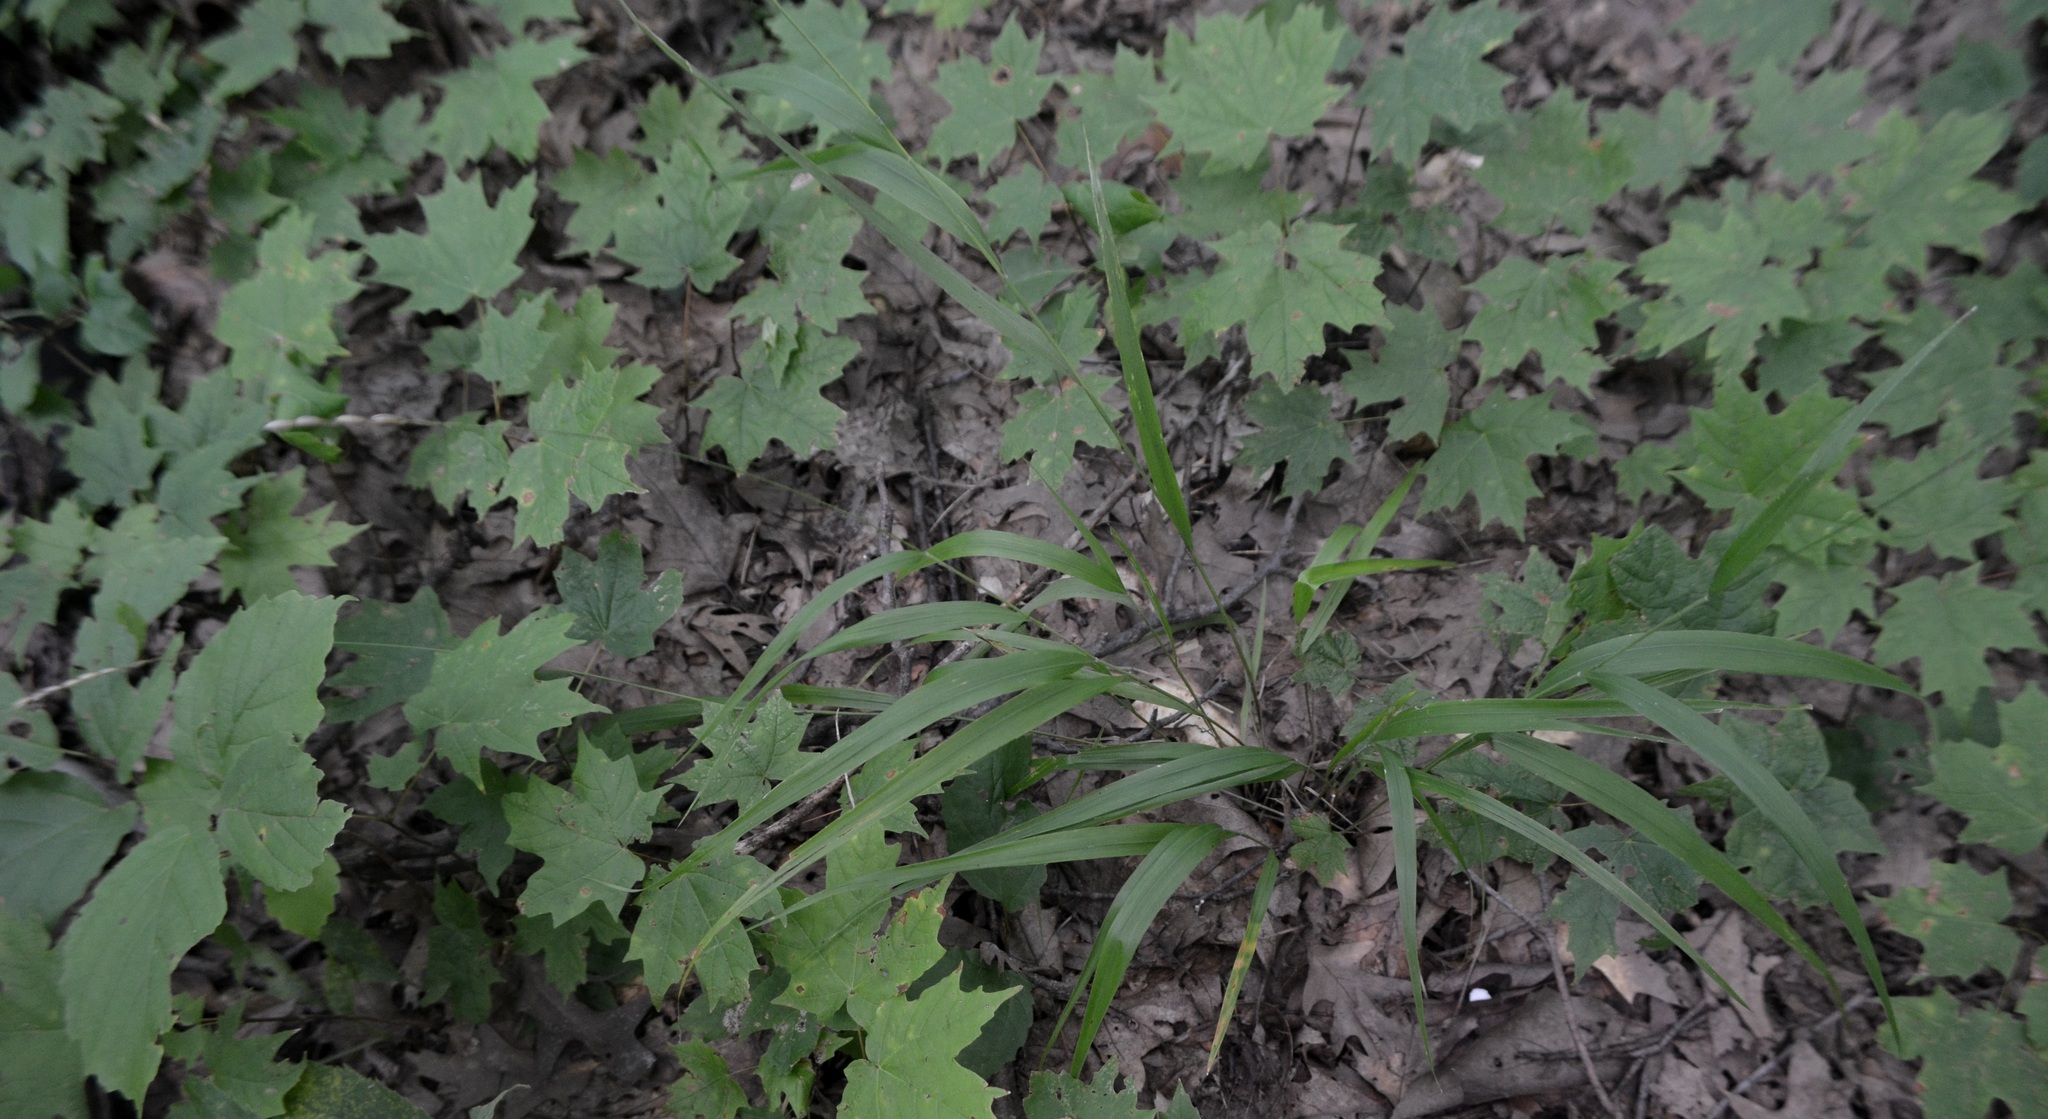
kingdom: Plantae
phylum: Tracheophyta
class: Liliopsida
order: Poales
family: Poaceae
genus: Patis
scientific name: Patis racemosa
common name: Black-fruited mountain rice
